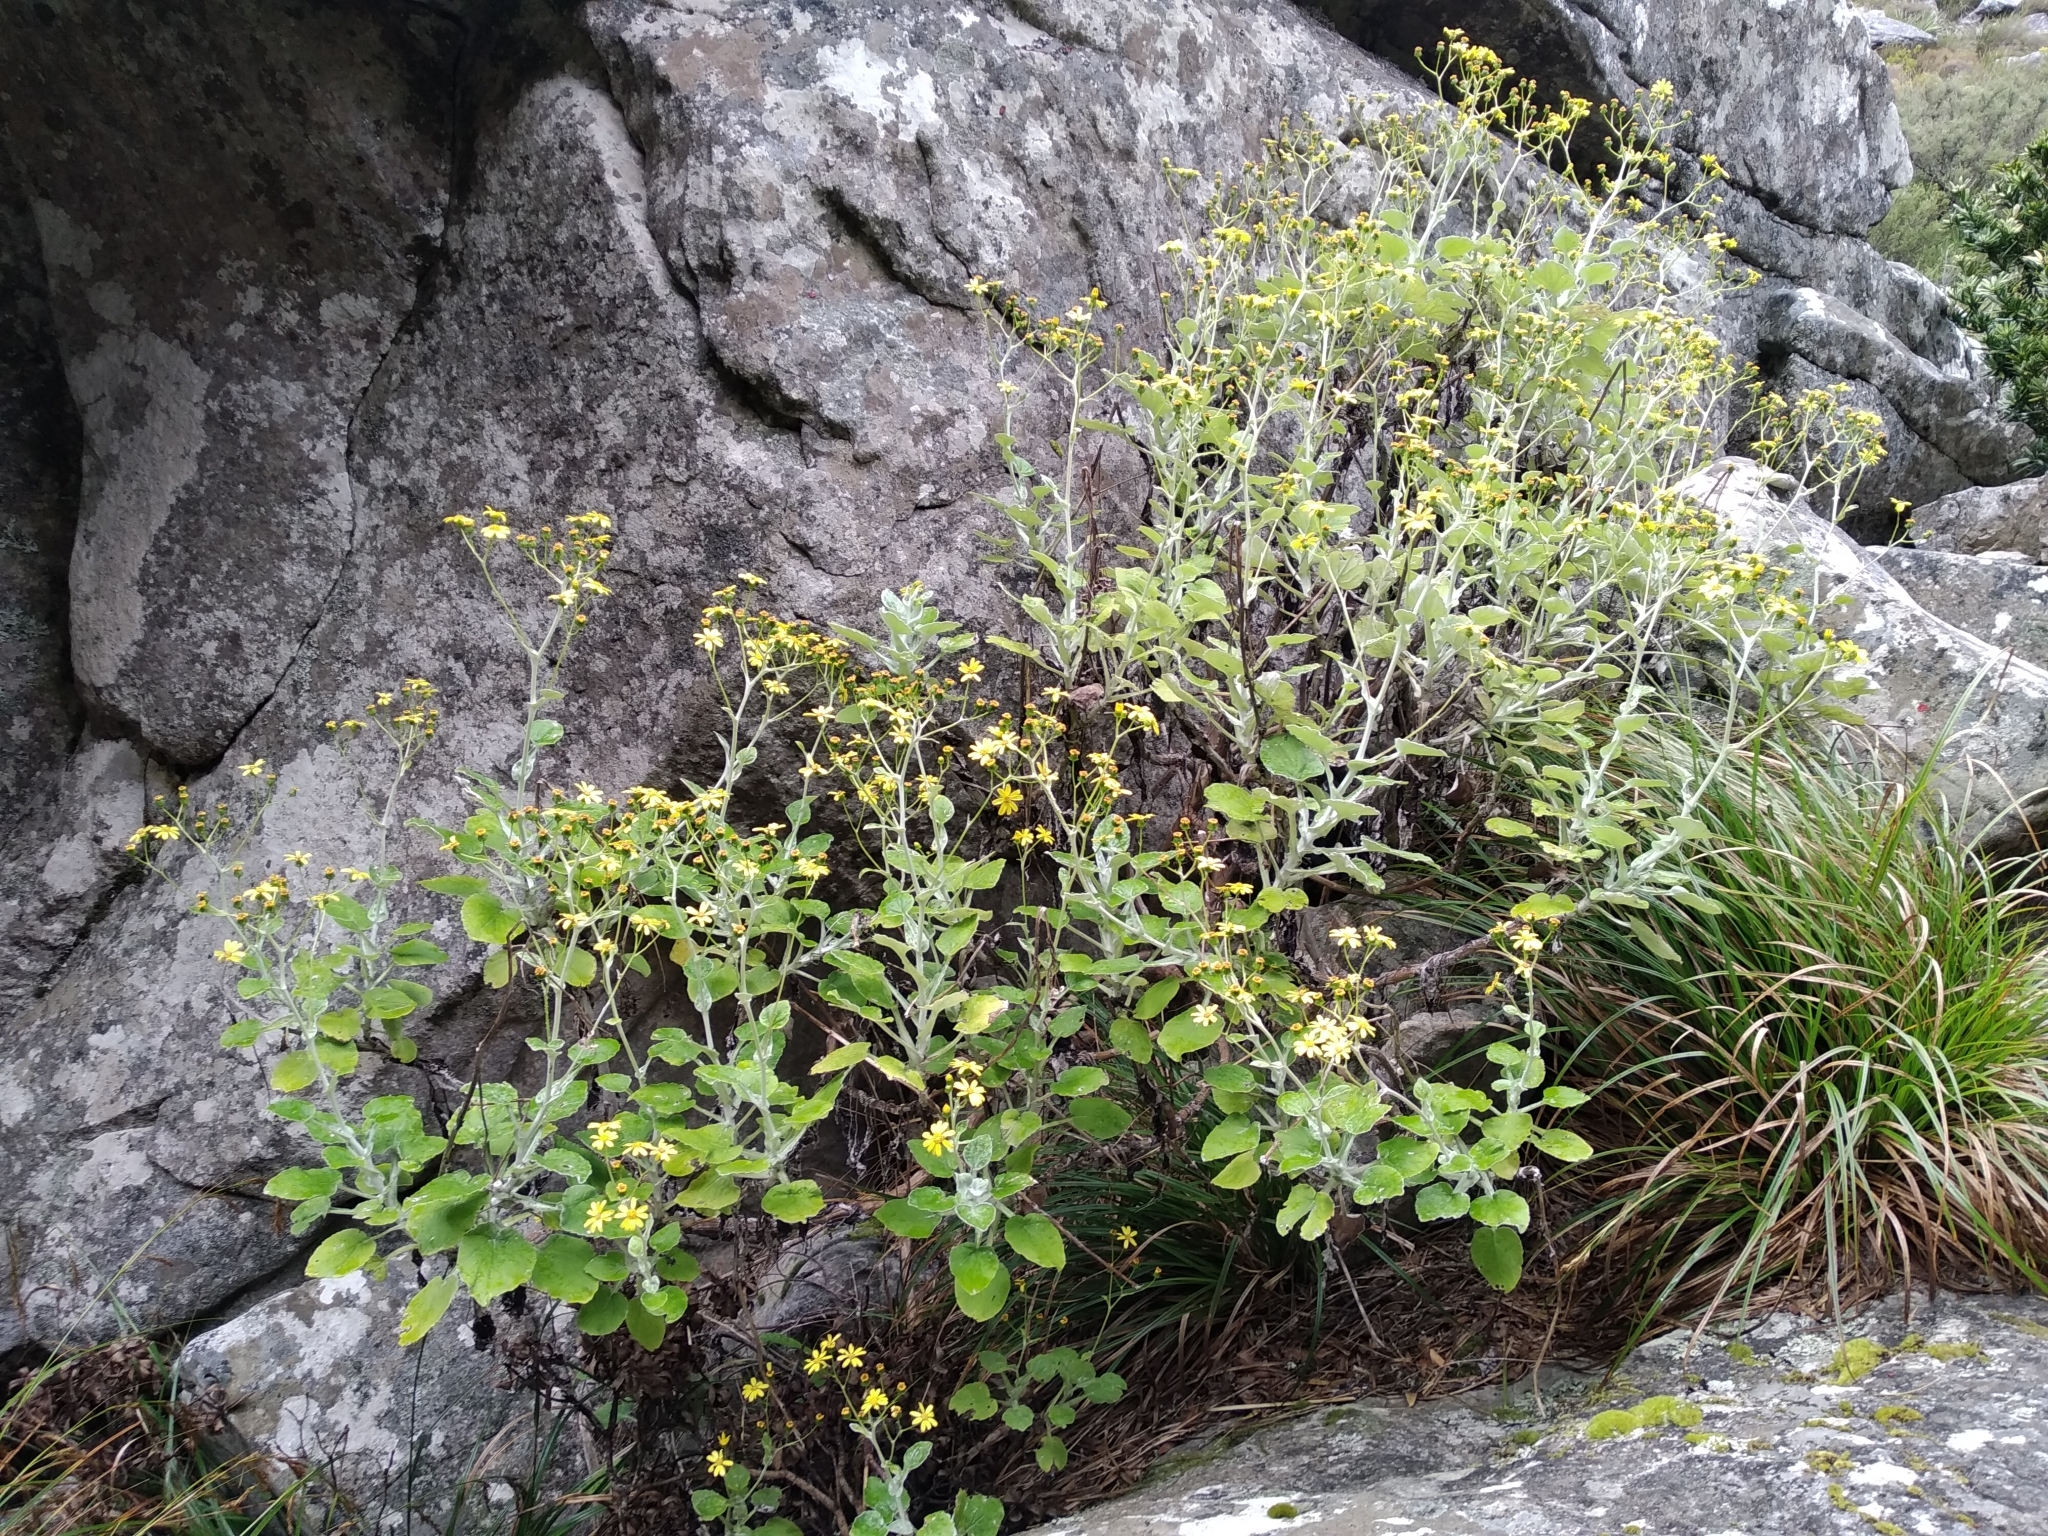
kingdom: Plantae
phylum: Tracheophyta
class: Magnoliopsida
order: Asterales
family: Asteraceae
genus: Senecio
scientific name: Senecio verbascifolius
